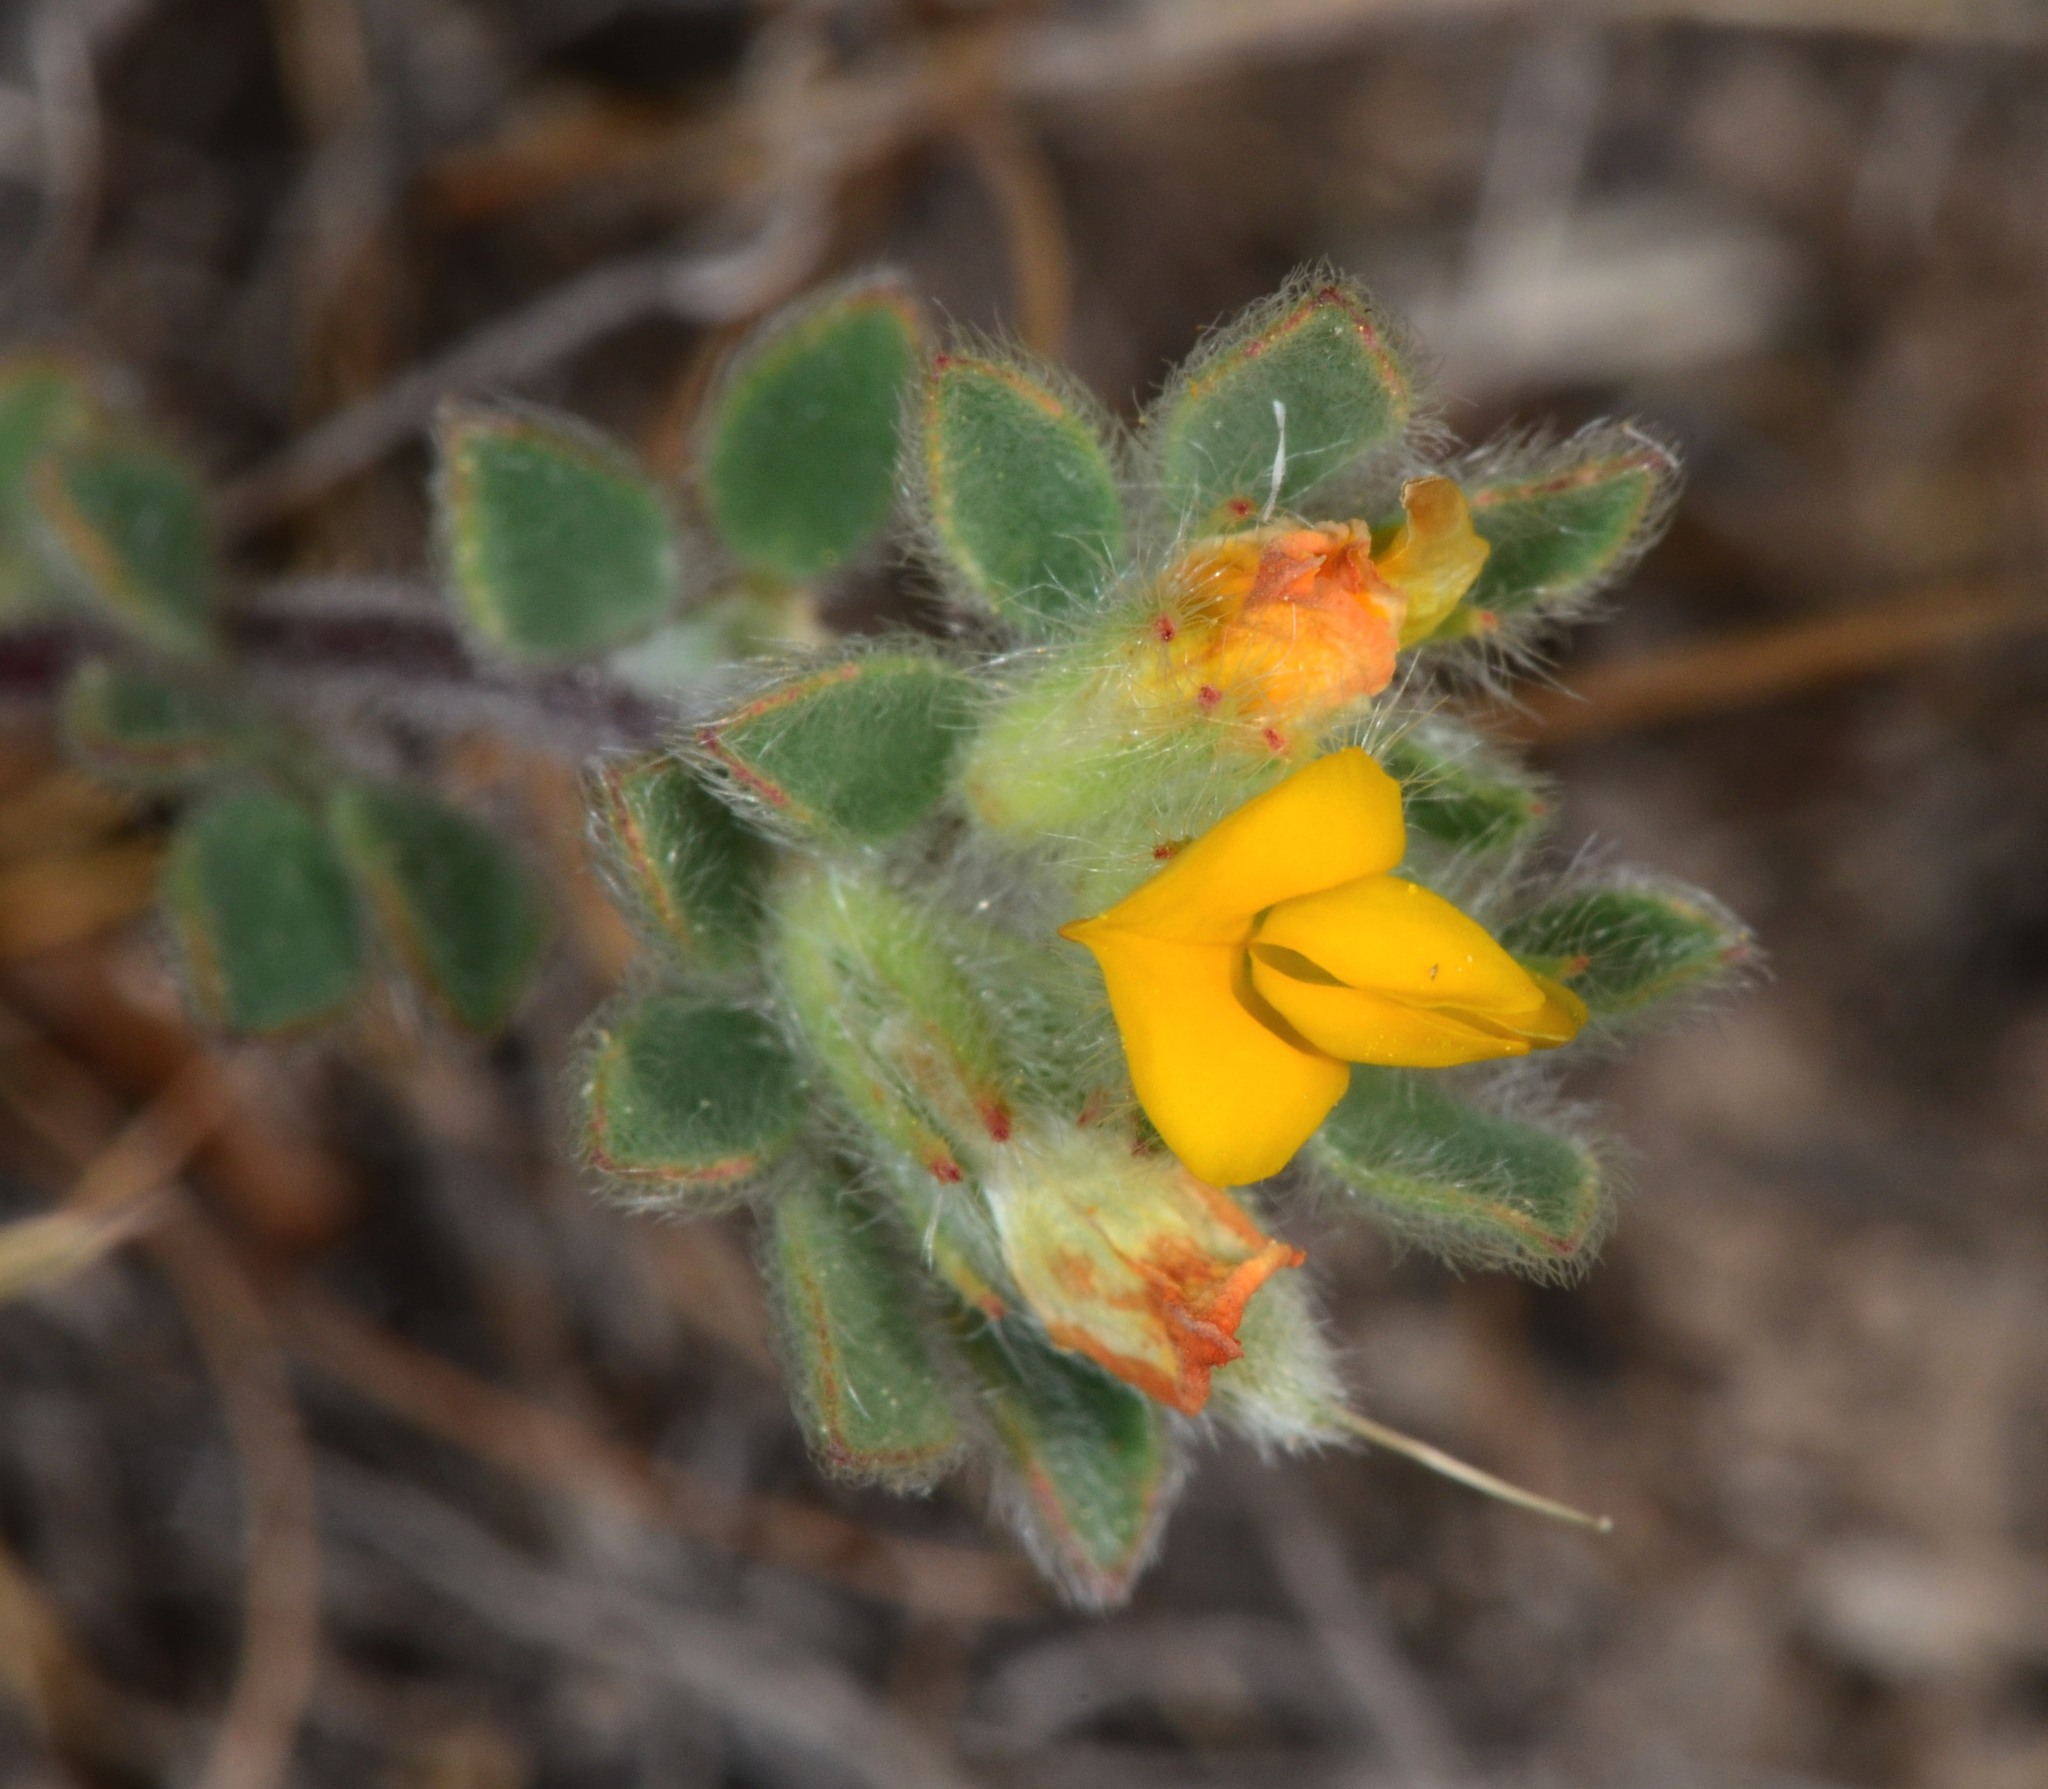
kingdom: Plantae
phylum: Tracheophyta
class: Magnoliopsida
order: Fabales
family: Fabaceae
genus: Acmispon
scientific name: Acmispon brachycarpus
